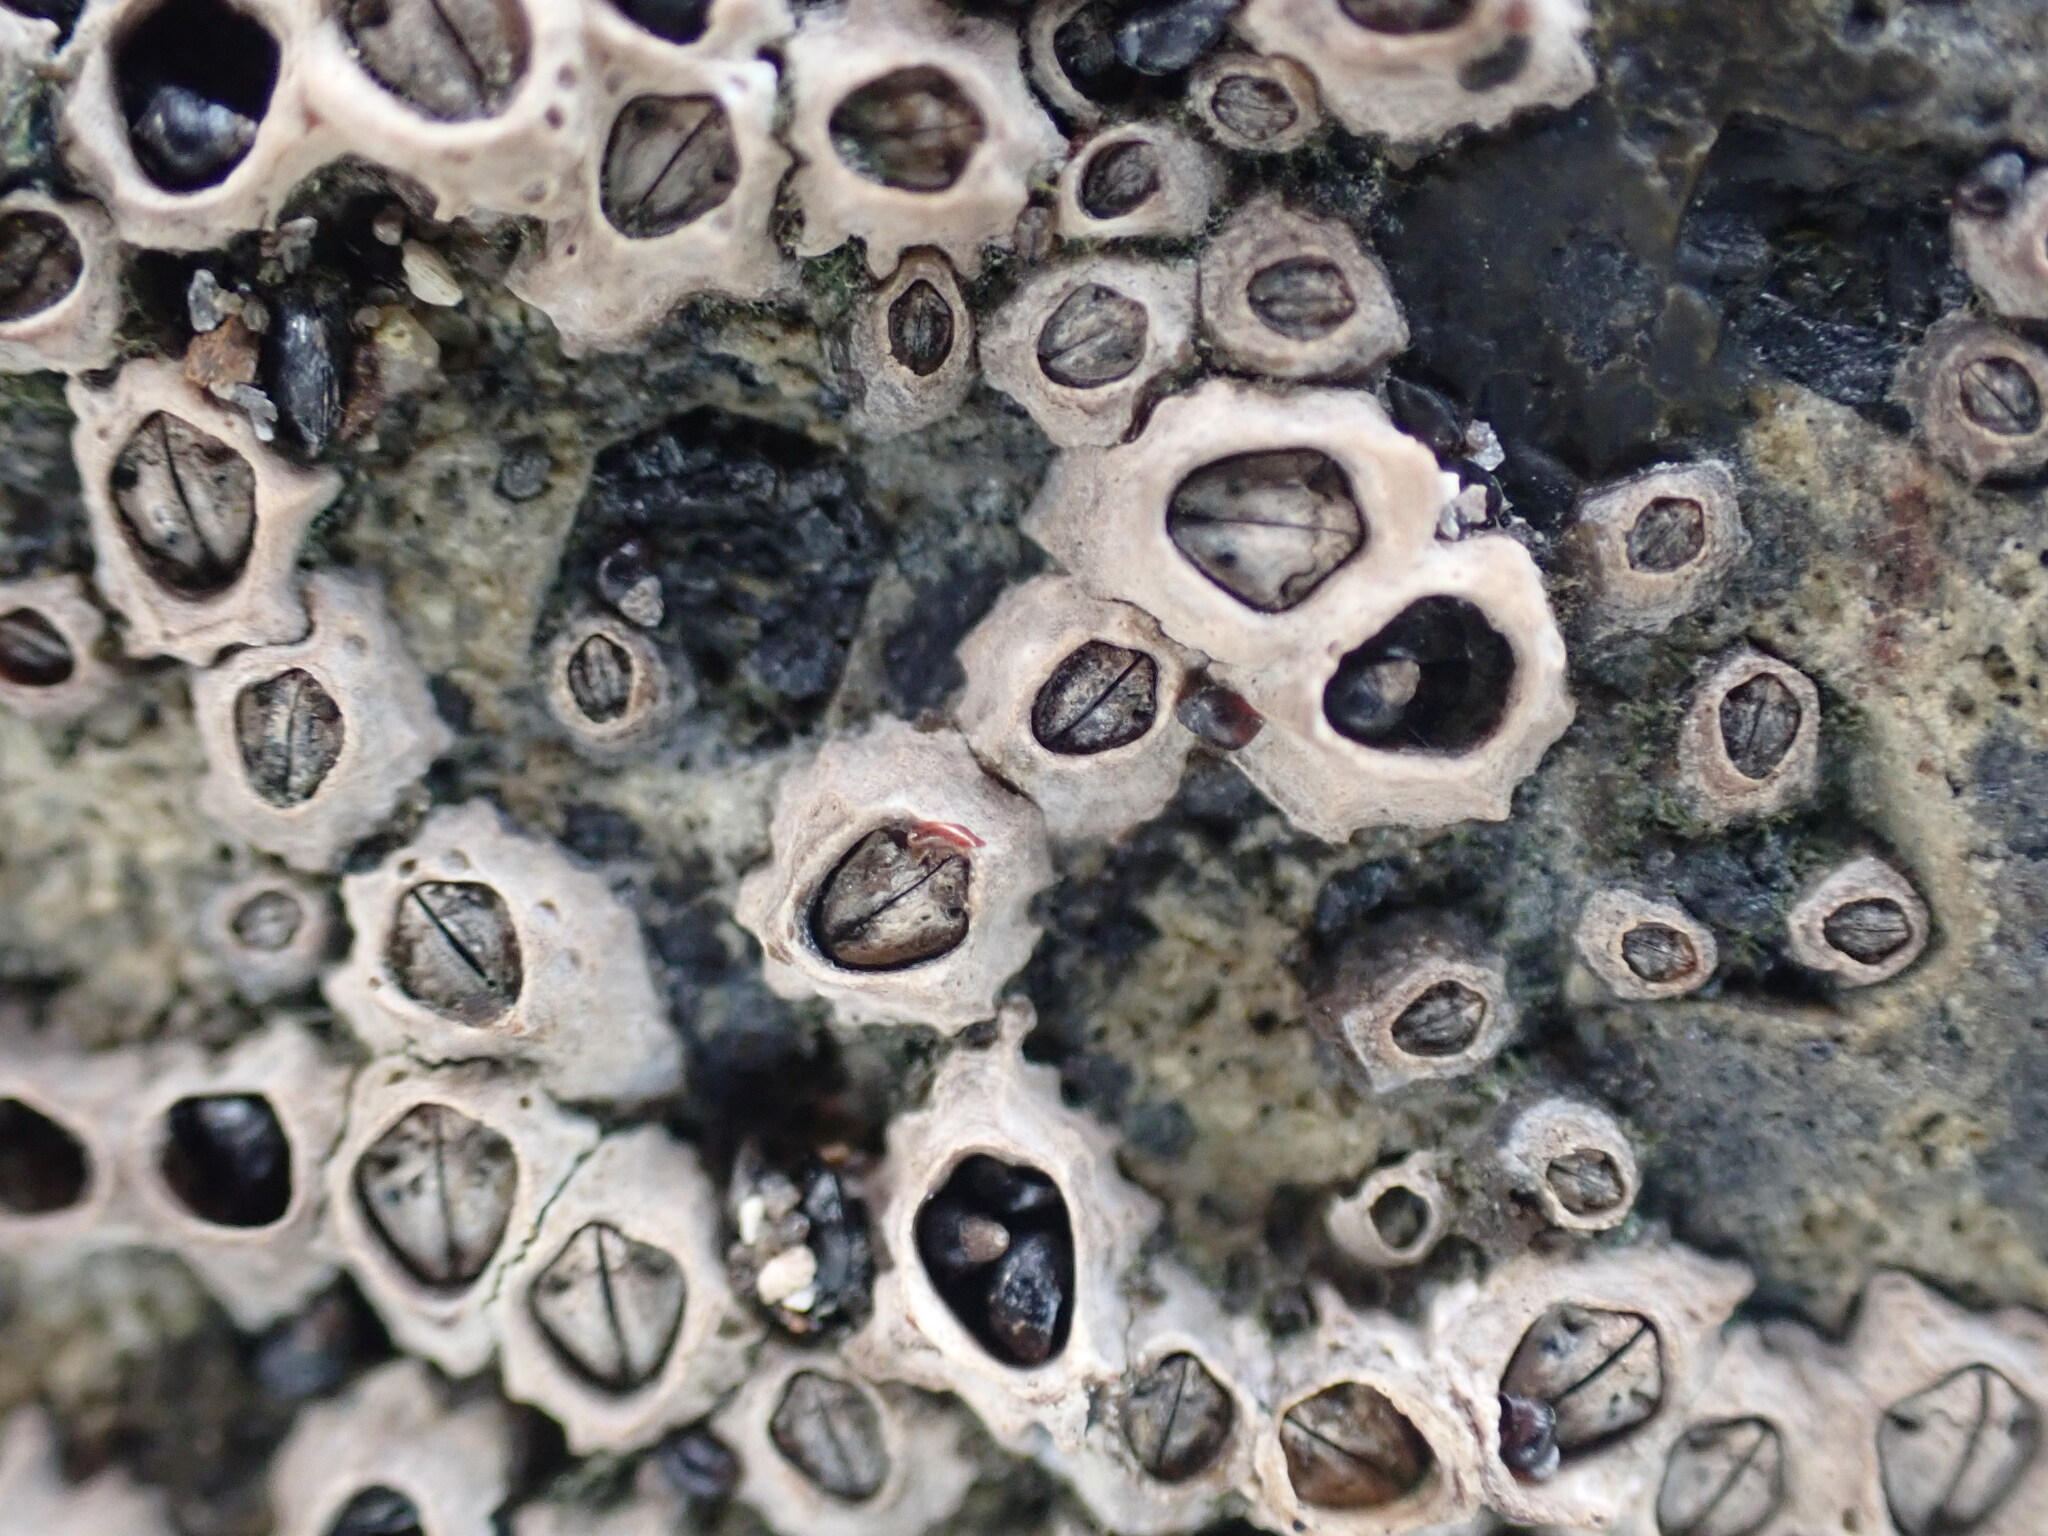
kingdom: Animalia
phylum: Arthropoda
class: Maxillopoda
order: Sessilia
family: Chthamalidae
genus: Chamaesipho
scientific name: Chamaesipho columna
